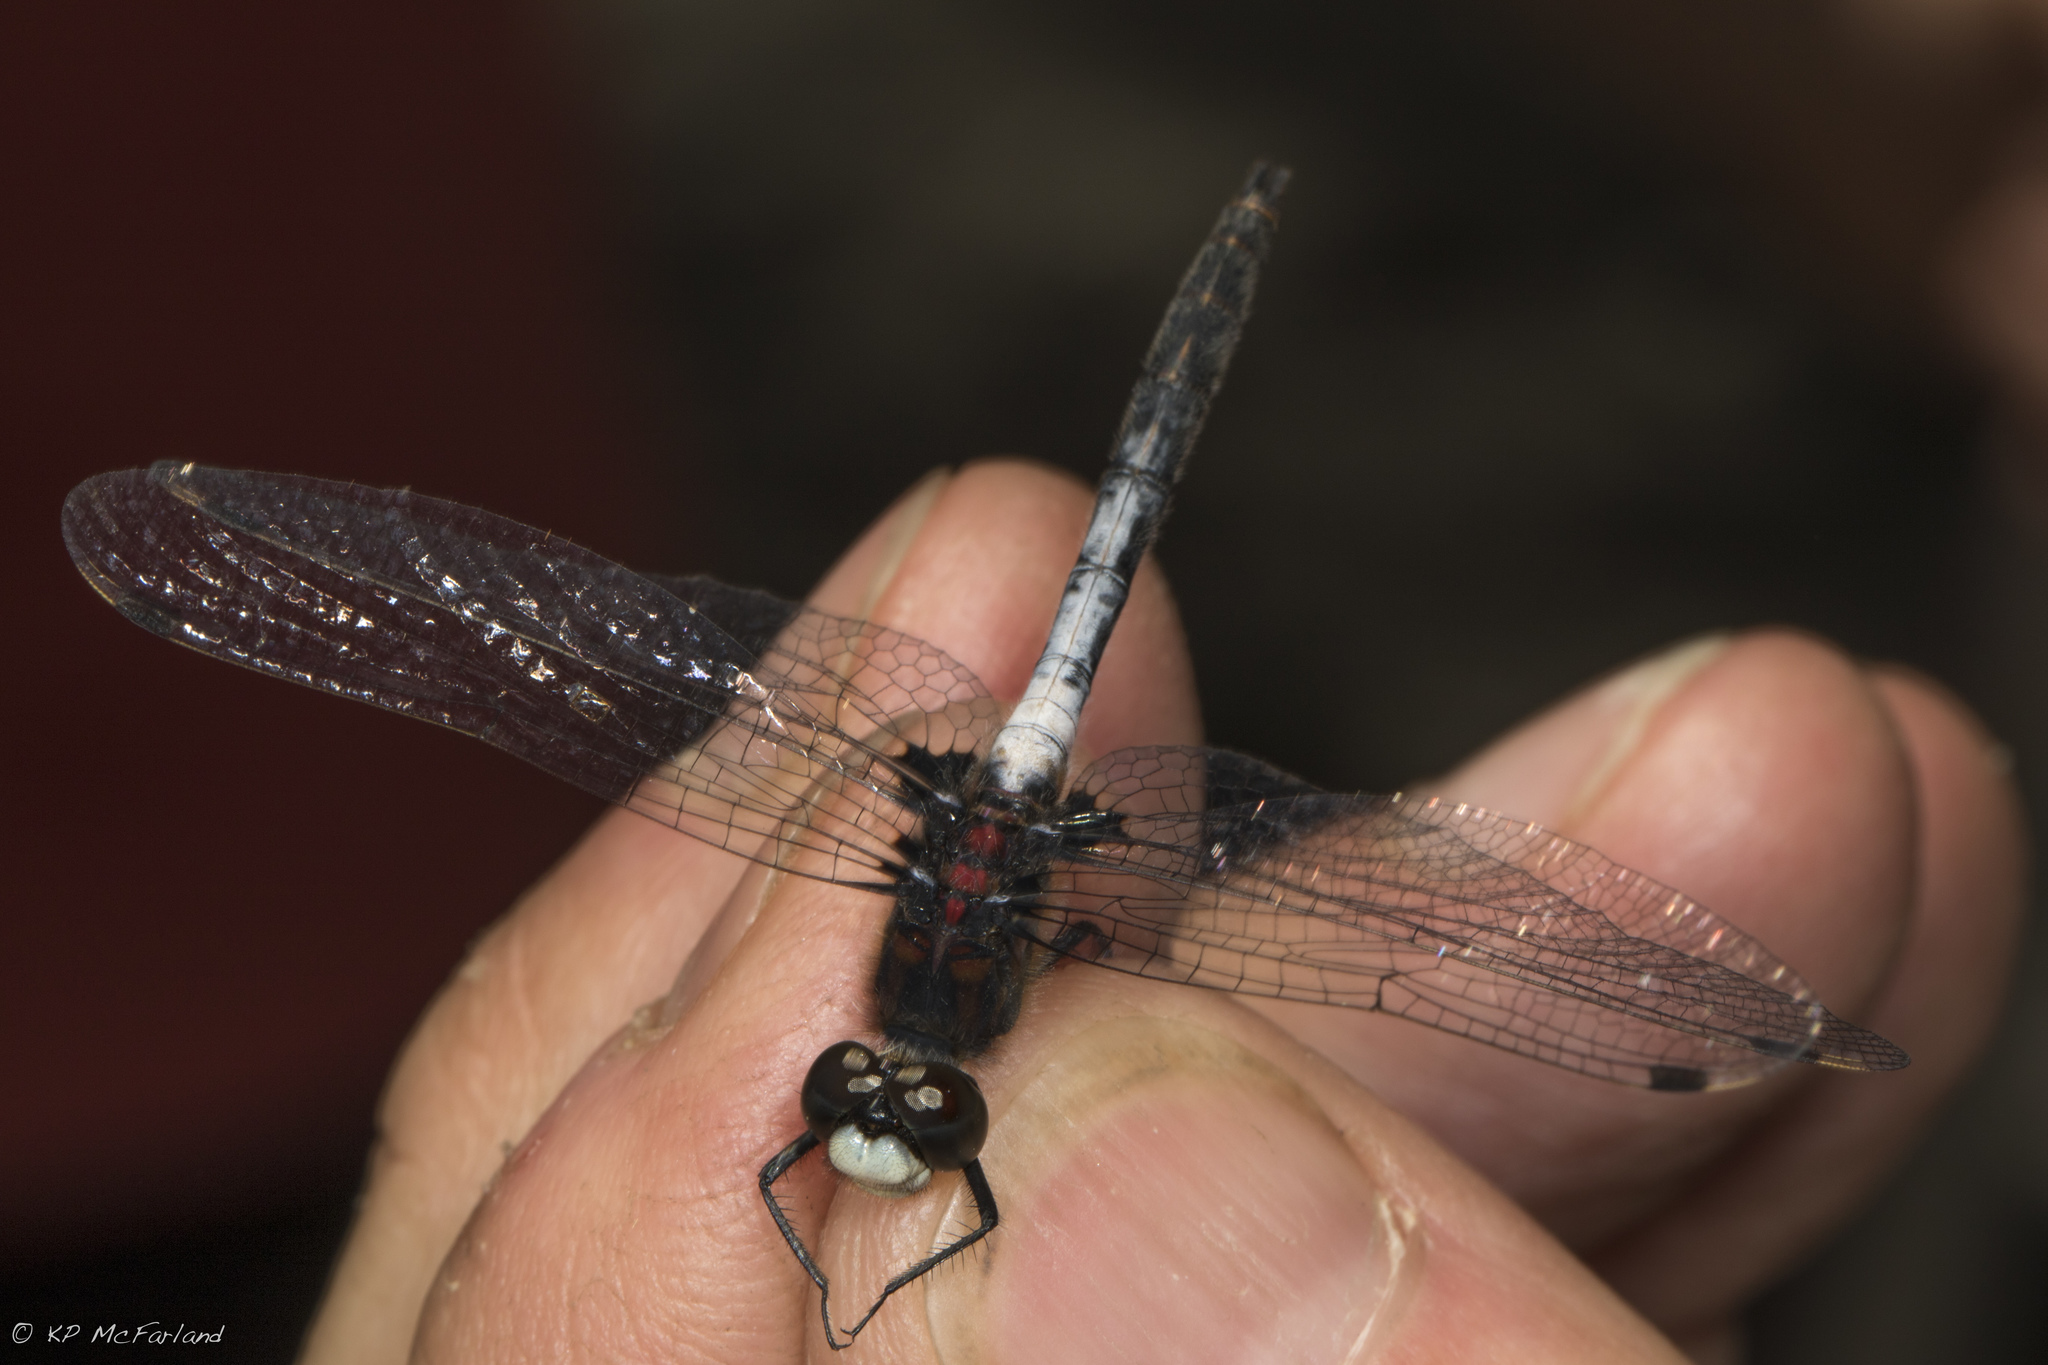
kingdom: Animalia
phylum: Arthropoda
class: Insecta
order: Odonata
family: Libellulidae
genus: Leucorrhinia
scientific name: Leucorrhinia proxima
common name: Belted whiteface
